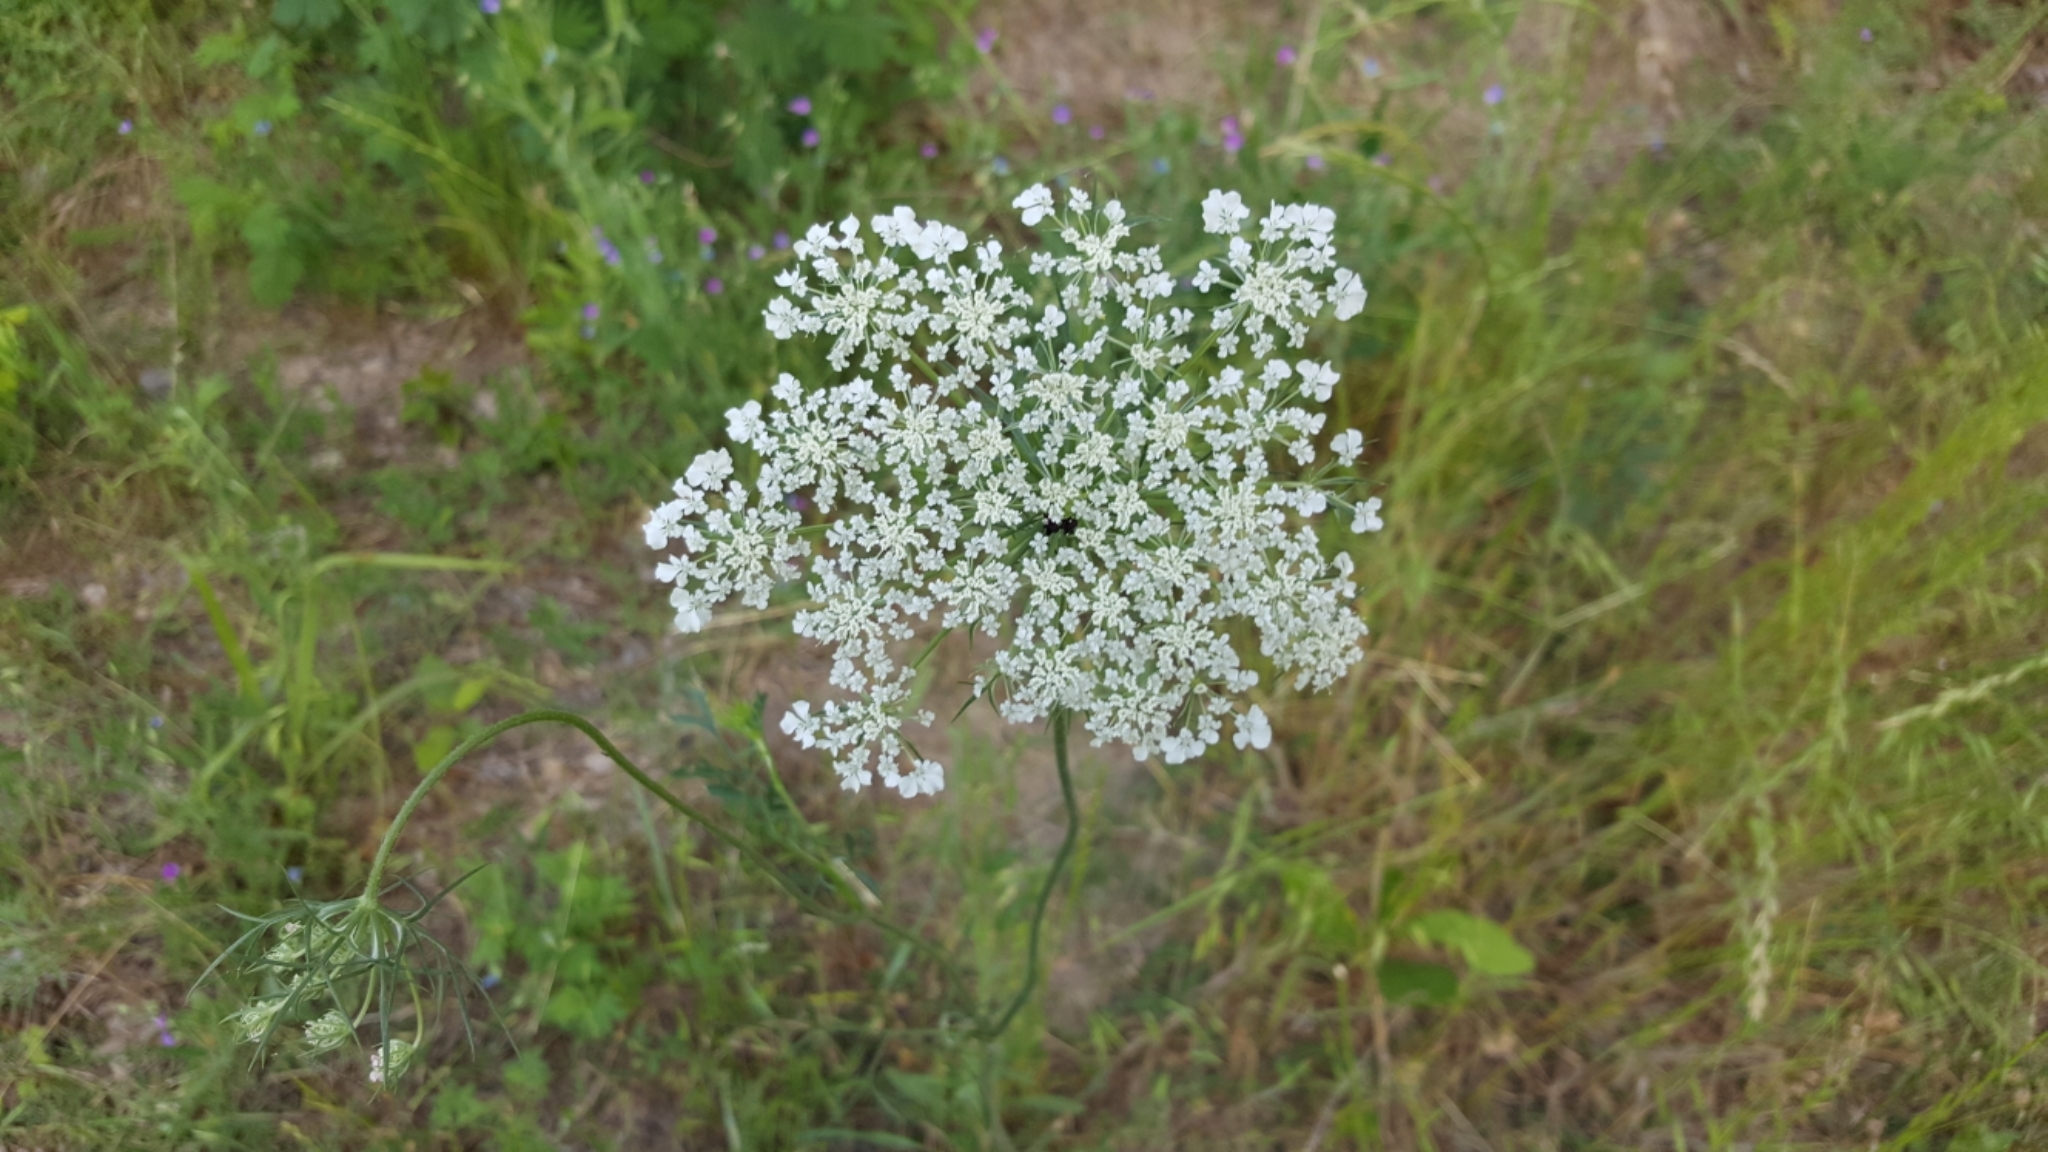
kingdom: Plantae
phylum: Tracheophyta
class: Magnoliopsida
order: Apiales
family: Apiaceae
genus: Daucus
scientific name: Daucus carota
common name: Wild carrot
